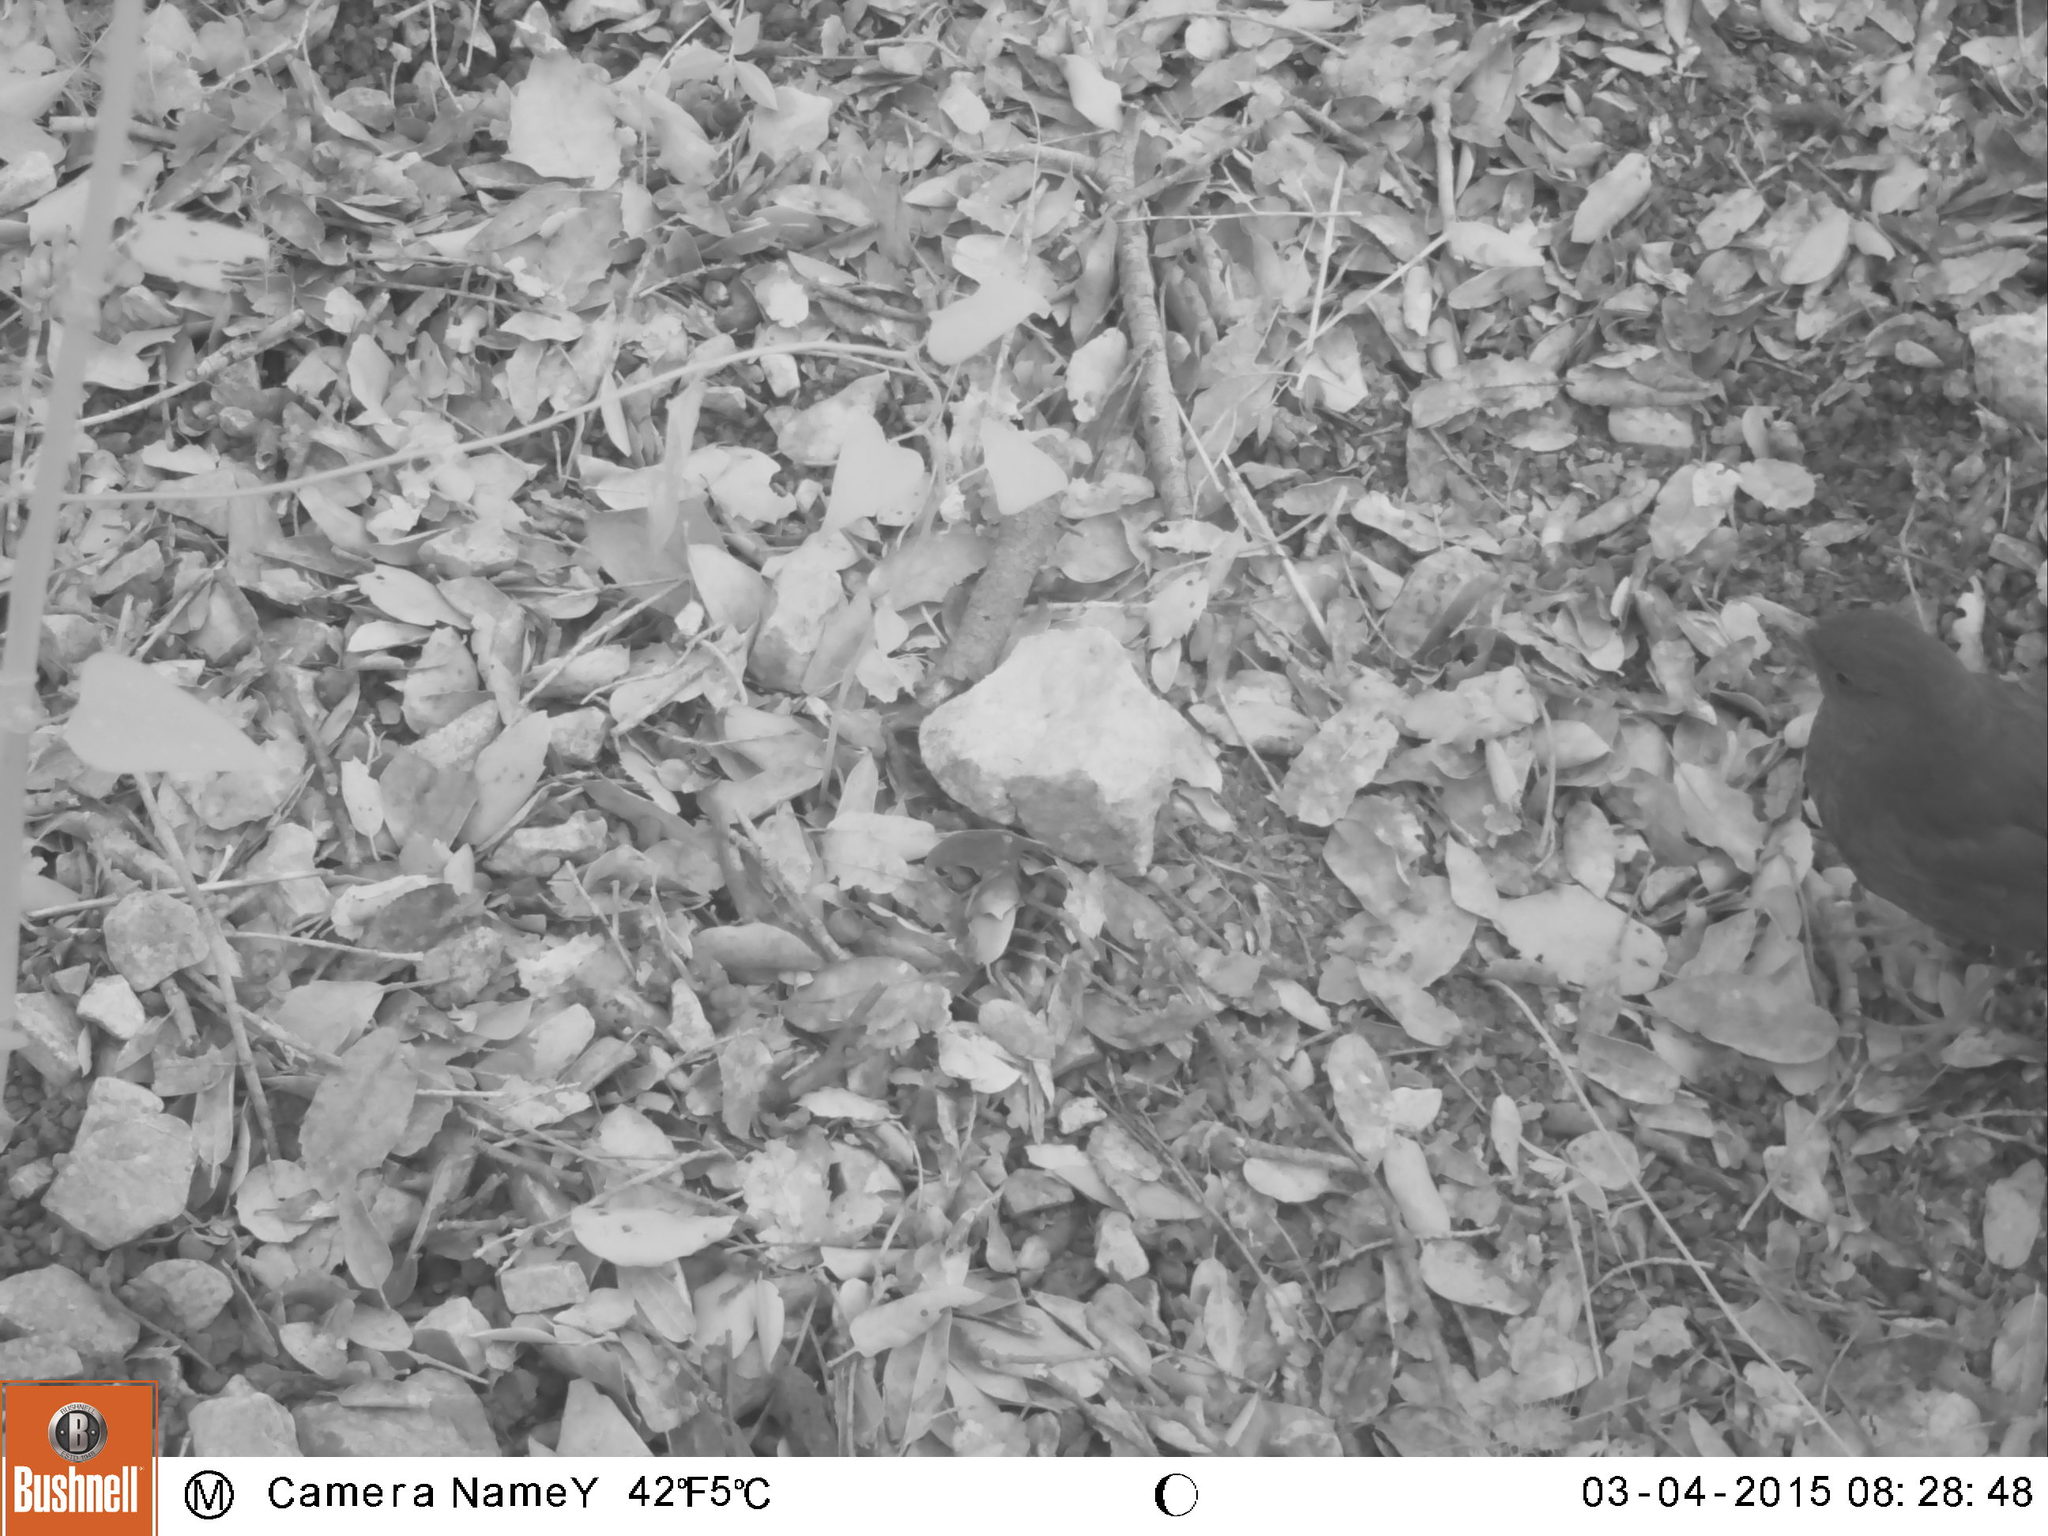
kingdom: Animalia
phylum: Chordata
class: Aves
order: Passeriformes
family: Turdidae
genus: Turdus
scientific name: Turdus merula
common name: Common blackbird
